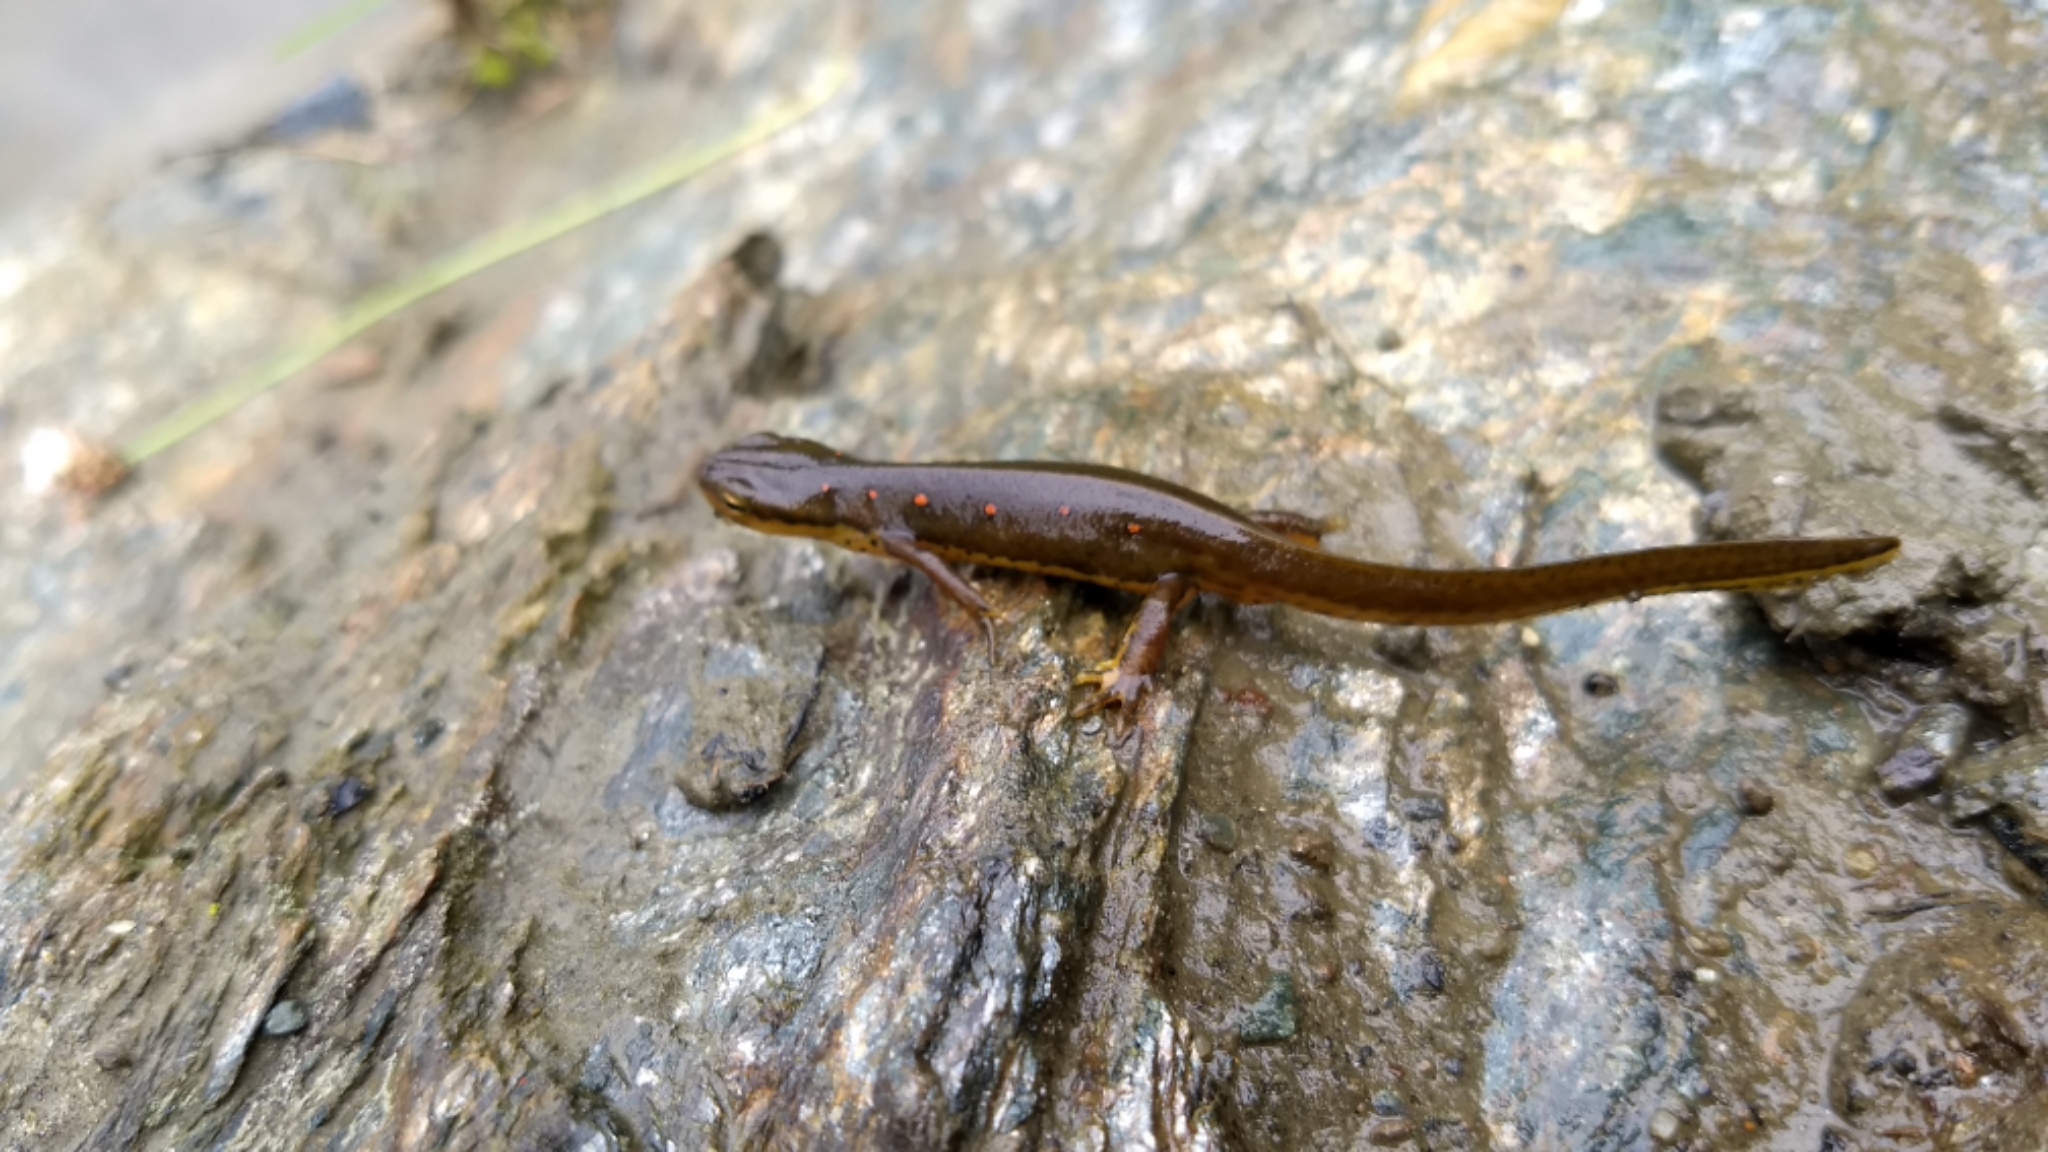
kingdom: Animalia
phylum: Chordata
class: Amphibia
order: Caudata
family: Salamandridae
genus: Notophthalmus
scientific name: Notophthalmus viridescens
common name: Eastern newt
